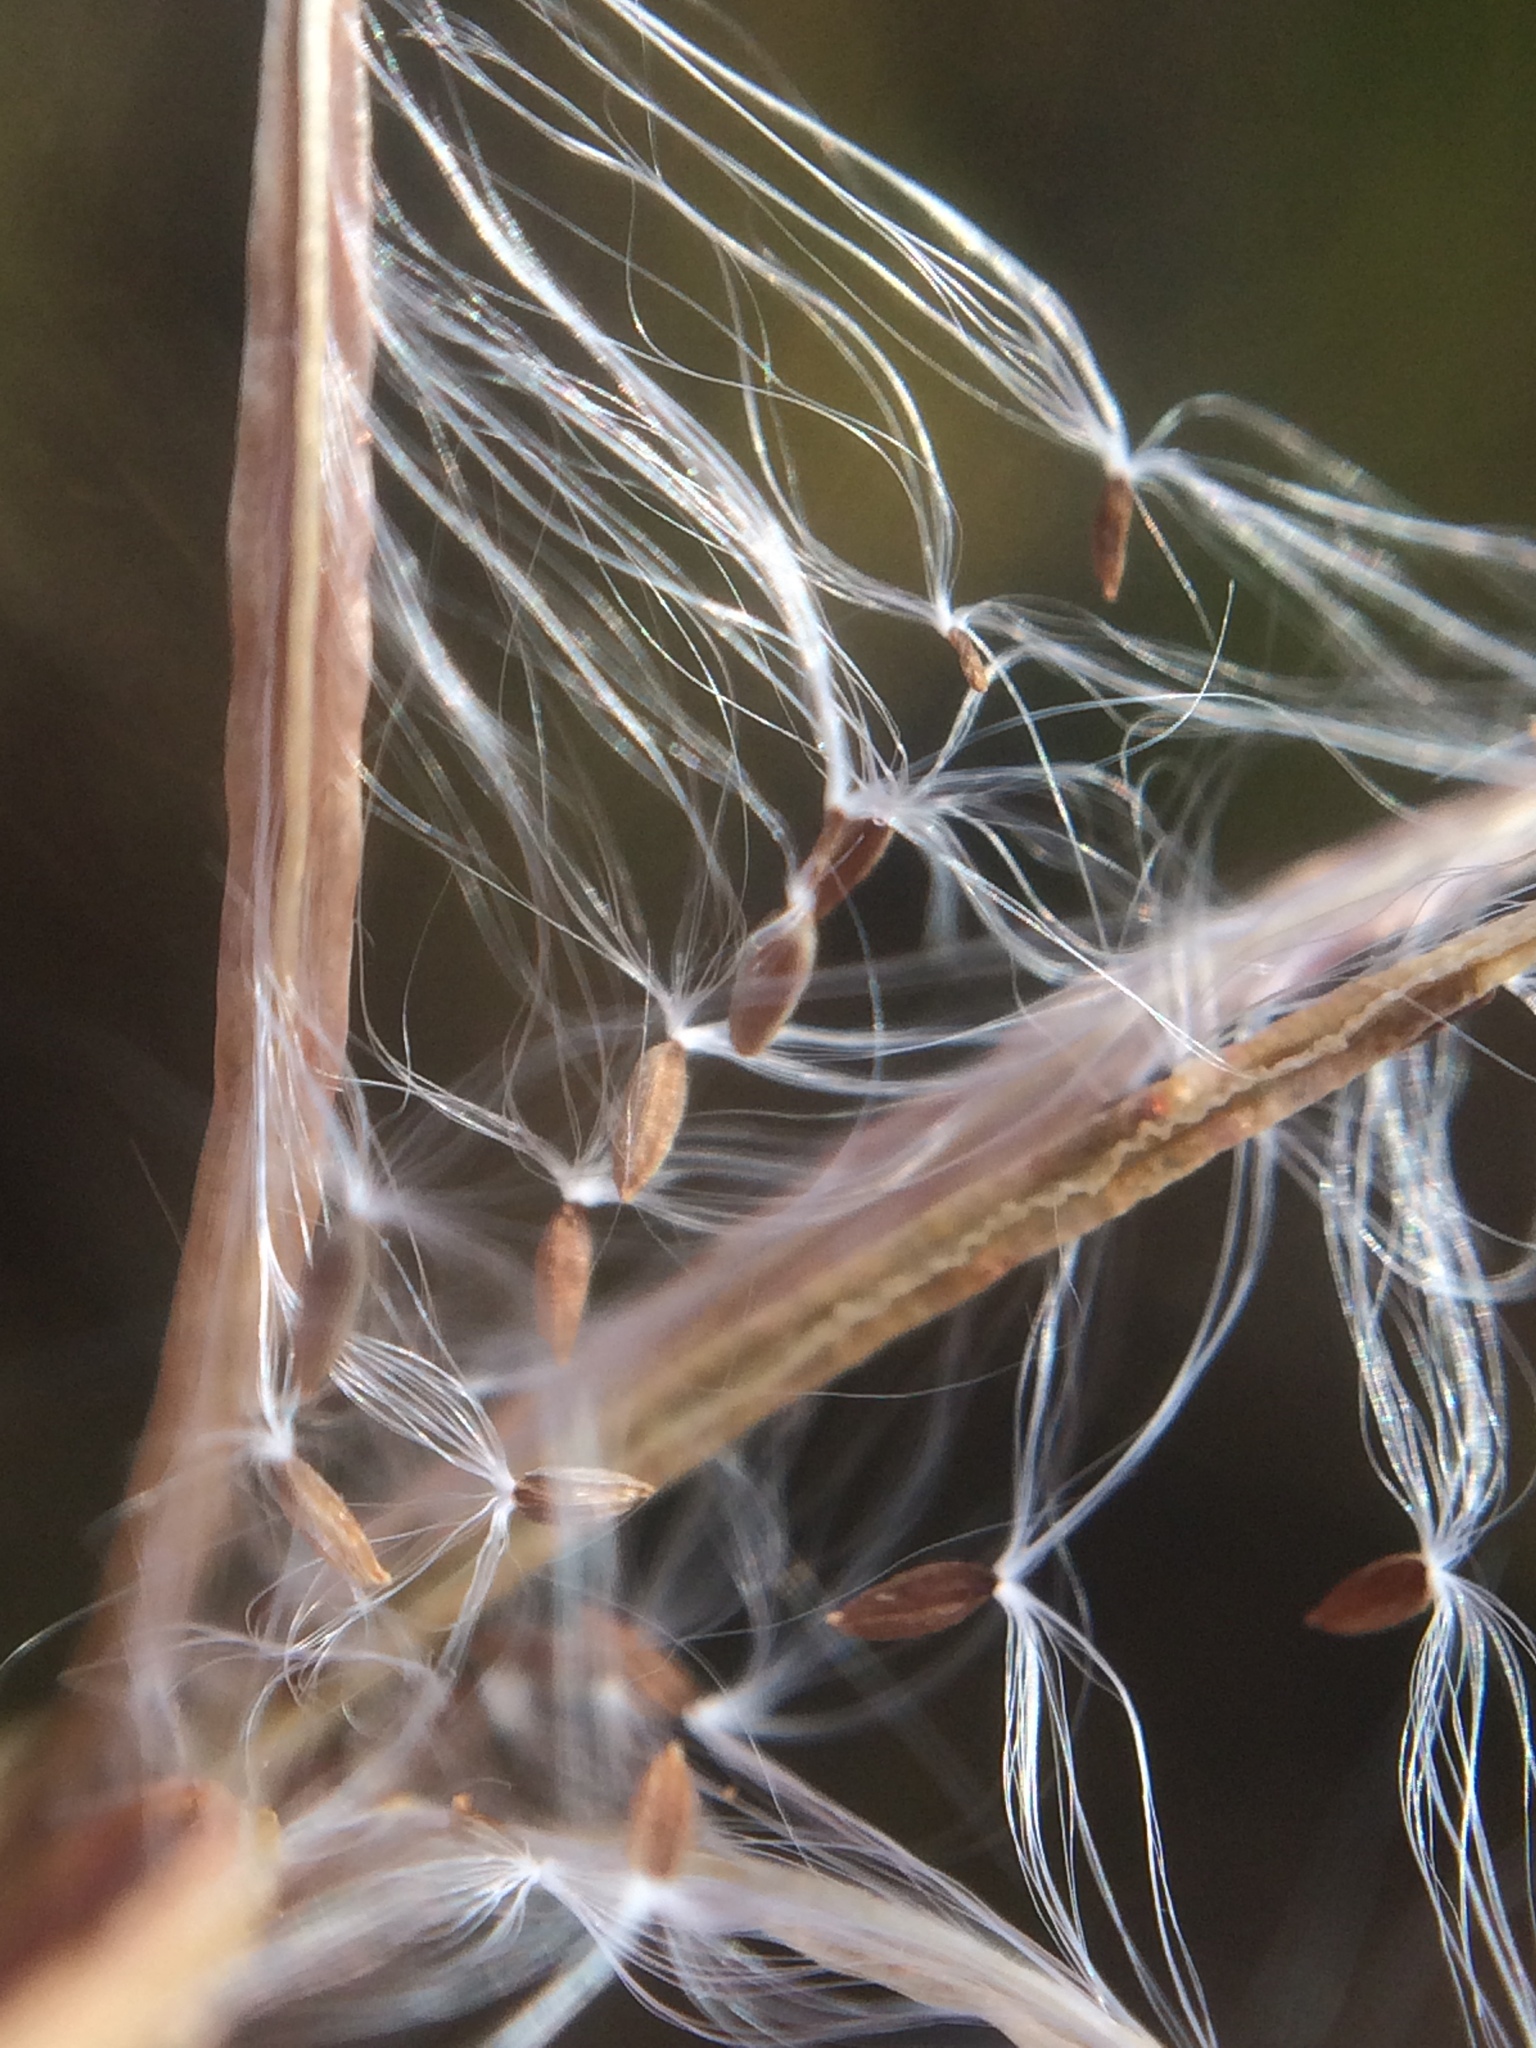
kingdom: Plantae
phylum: Tracheophyta
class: Magnoliopsida
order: Myrtales
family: Onagraceae
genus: Epilobium
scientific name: Epilobium ciliatum
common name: American willowherb
